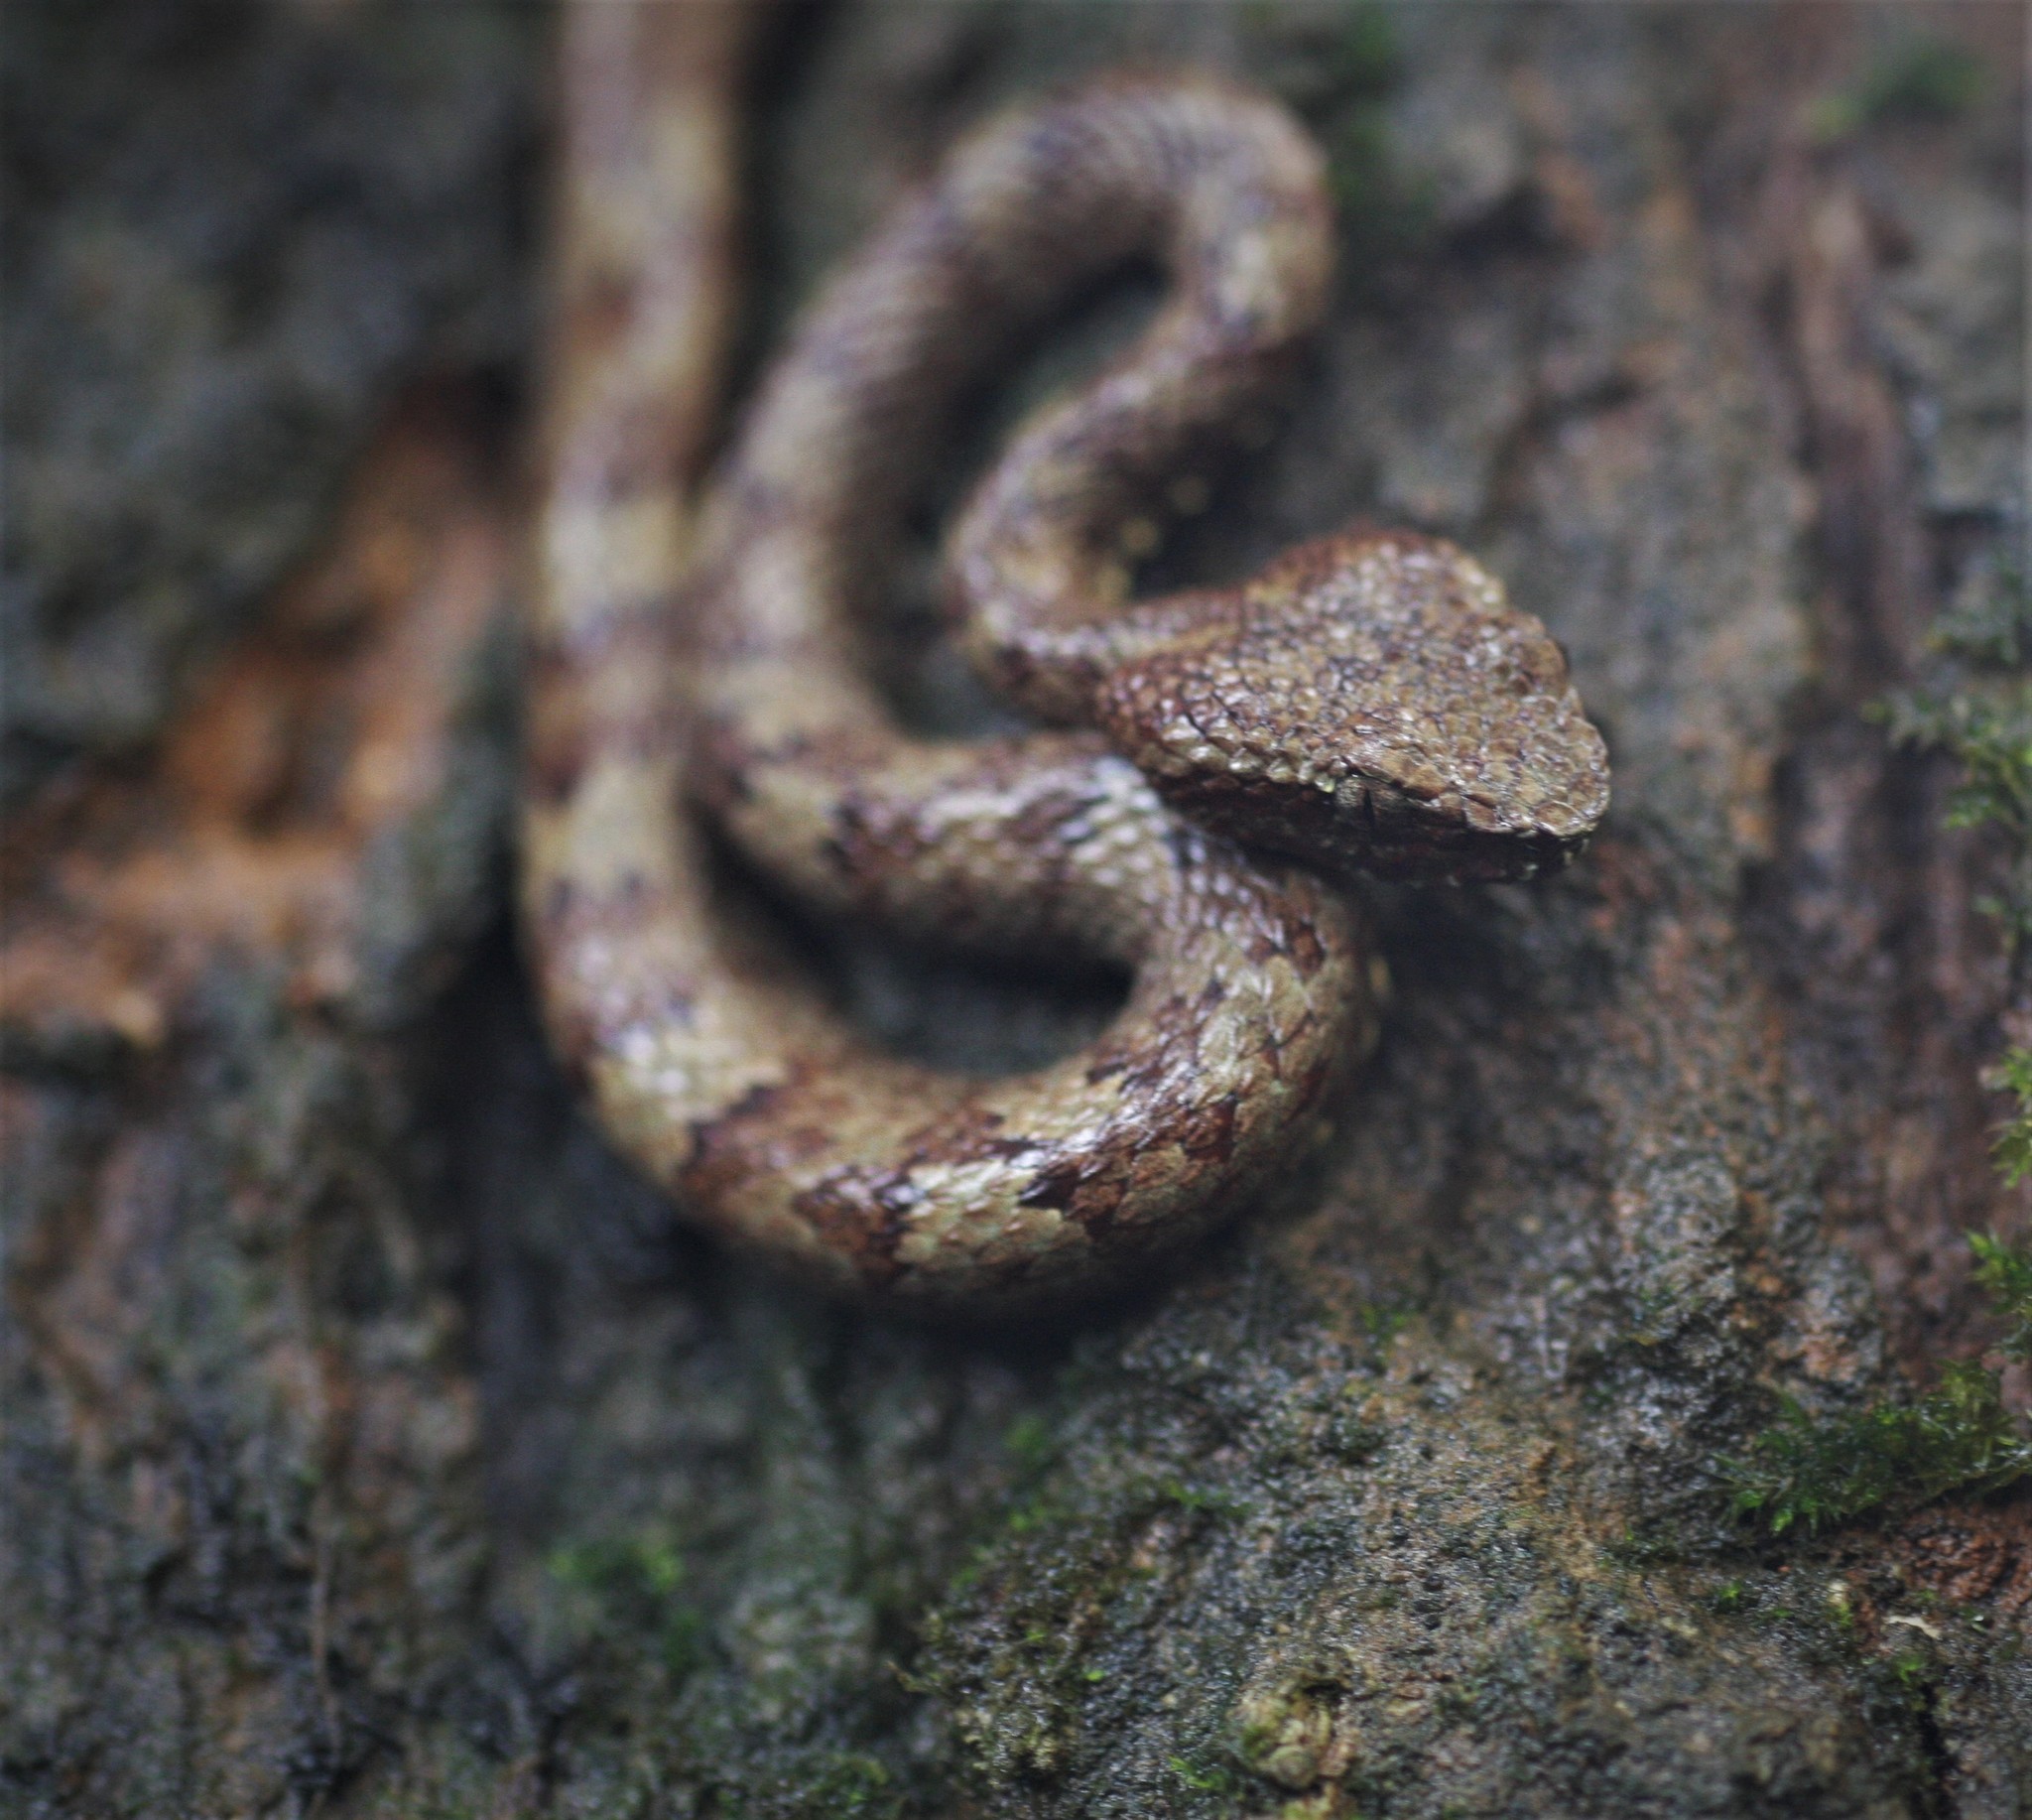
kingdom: Animalia
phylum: Chordata
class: Squamata
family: Viperidae
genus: Craspedocephalus
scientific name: Craspedocephalus malabaricus
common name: Malabarian pit viper
